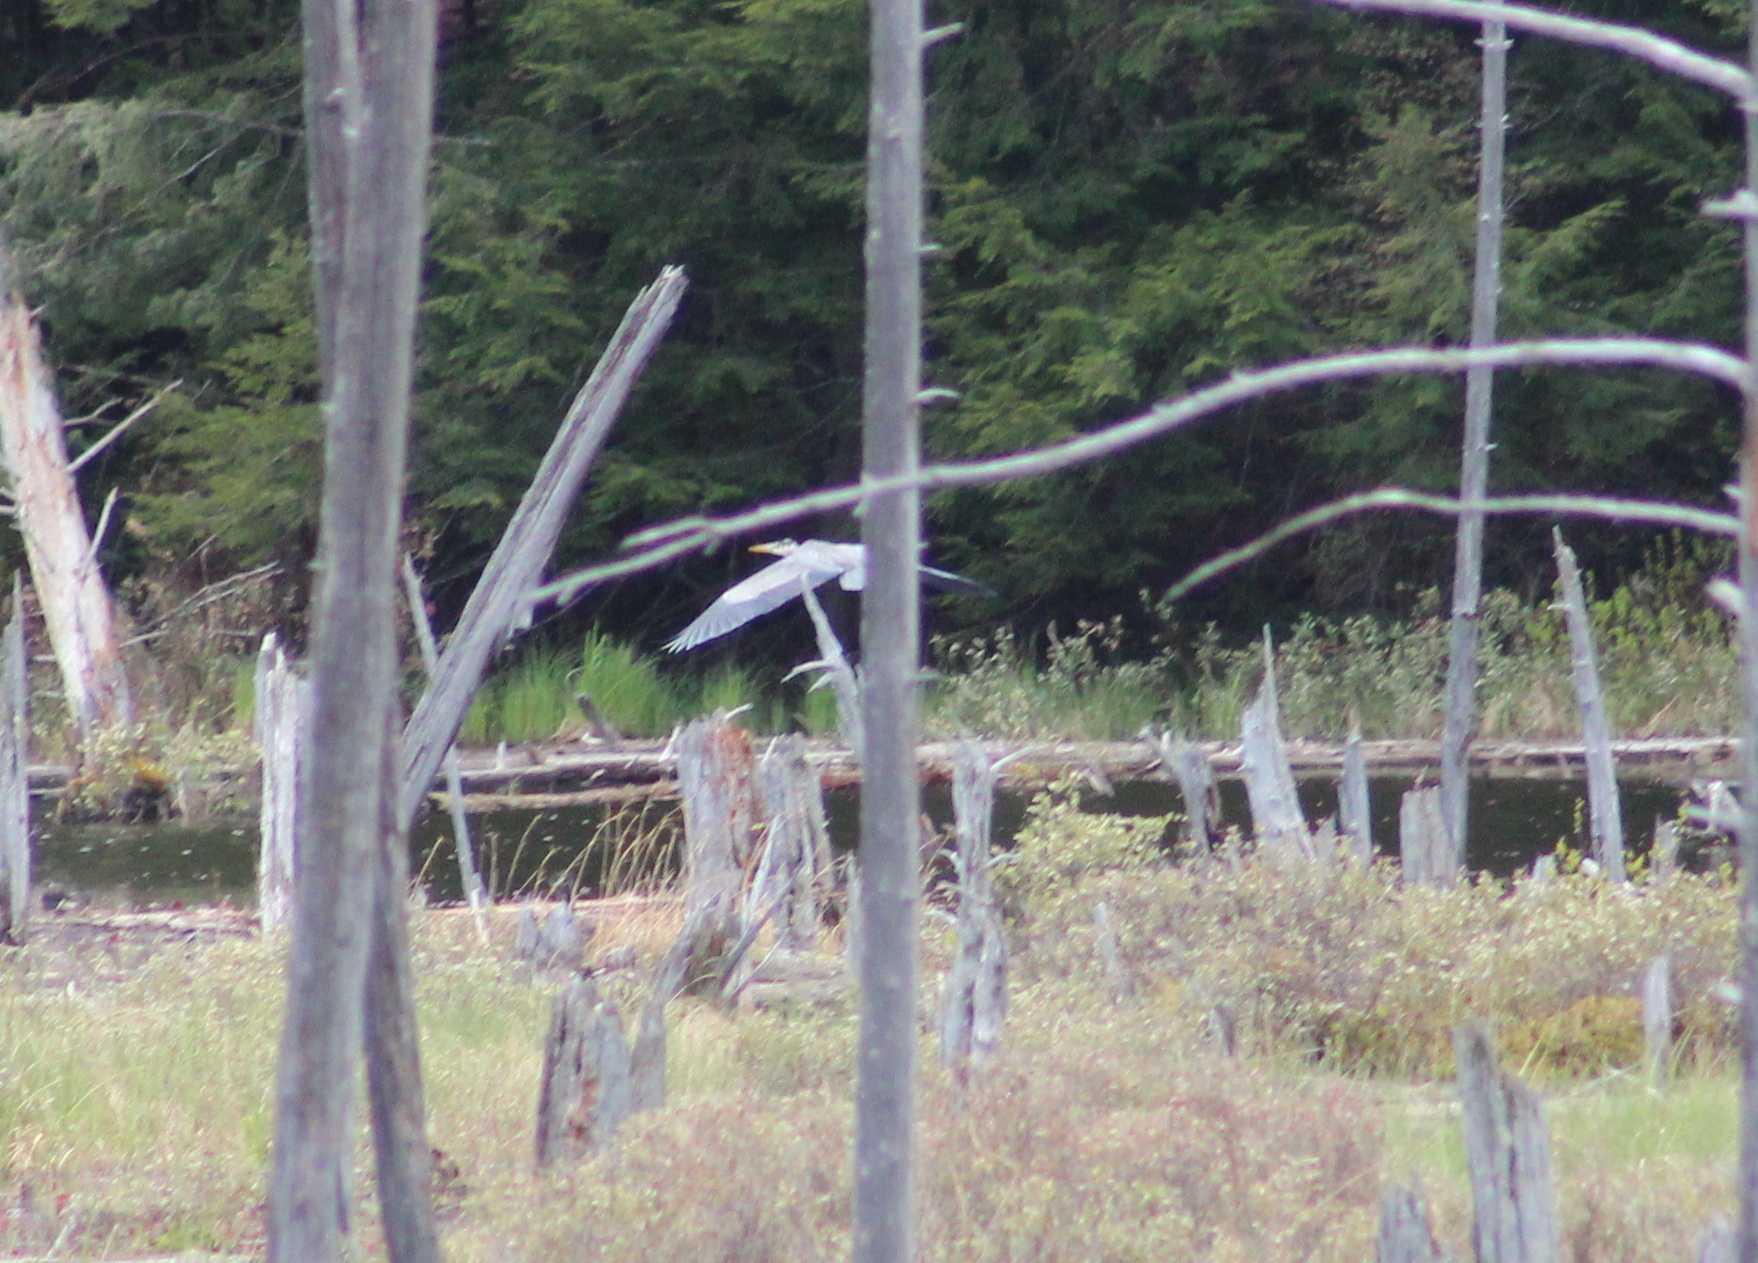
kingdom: Animalia
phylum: Chordata
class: Aves
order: Pelecaniformes
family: Ardeidae
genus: Ardea
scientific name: Ardea herodias
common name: Great blue heron
